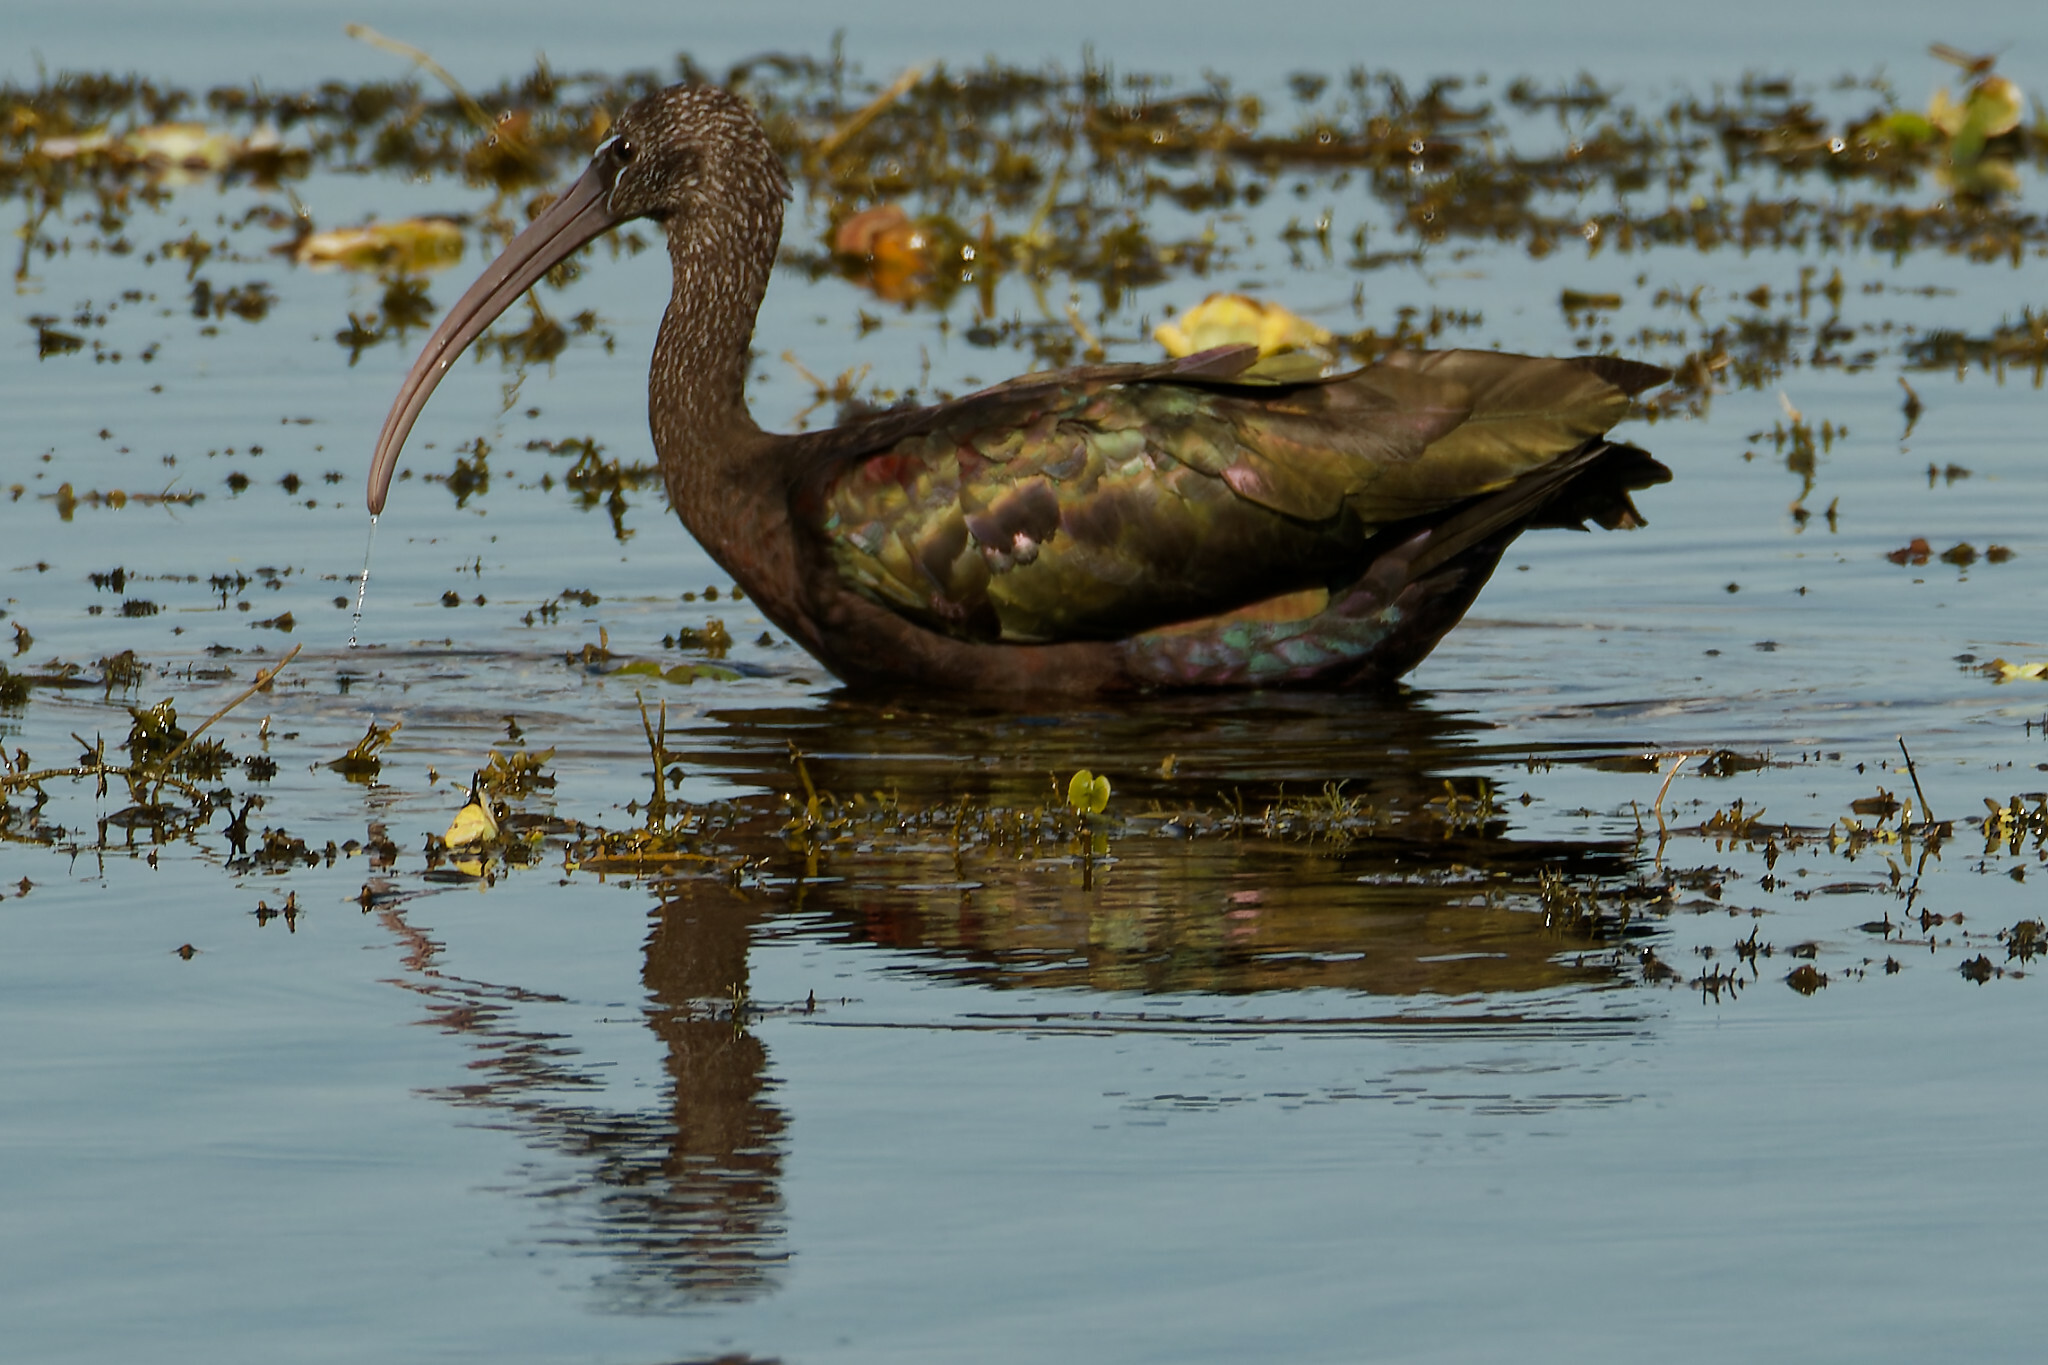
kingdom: Animalia
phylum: Chordata
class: Aves
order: Pelecaniformes
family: Threskiornithidae
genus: Plegadis
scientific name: Plegadis falcinellus
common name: Glossy ibis
